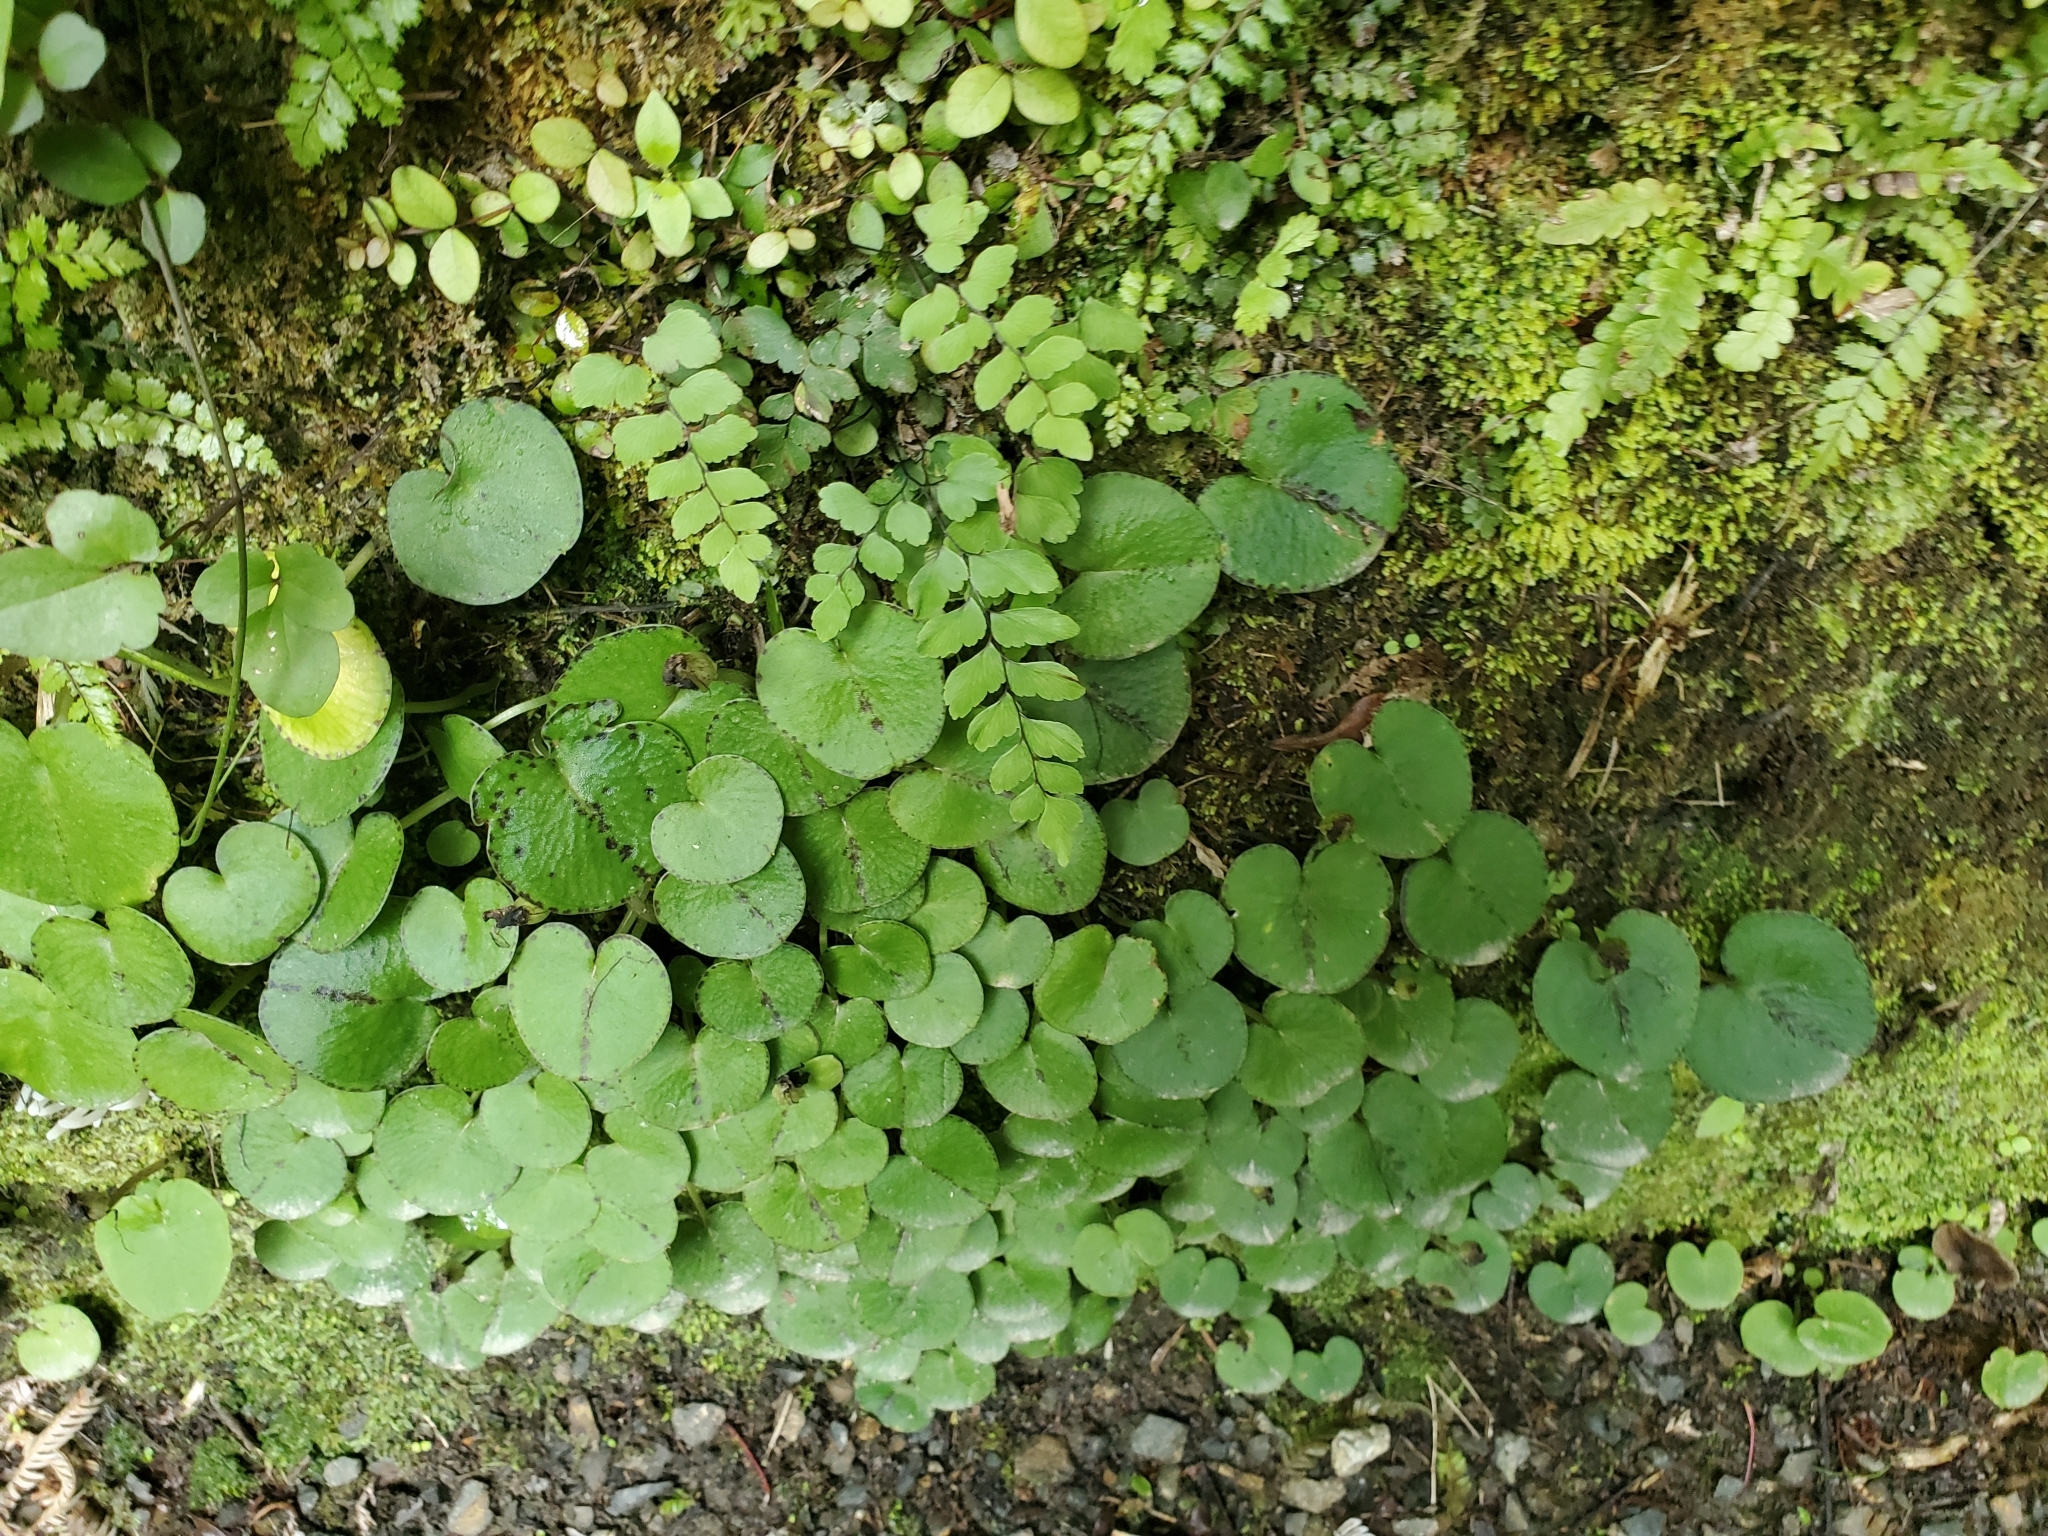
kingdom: Plantae
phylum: Tracheophyta
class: Liliopsida
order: Asparagales
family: Orchidaceae
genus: Corybas
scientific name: Corybas macranthus
